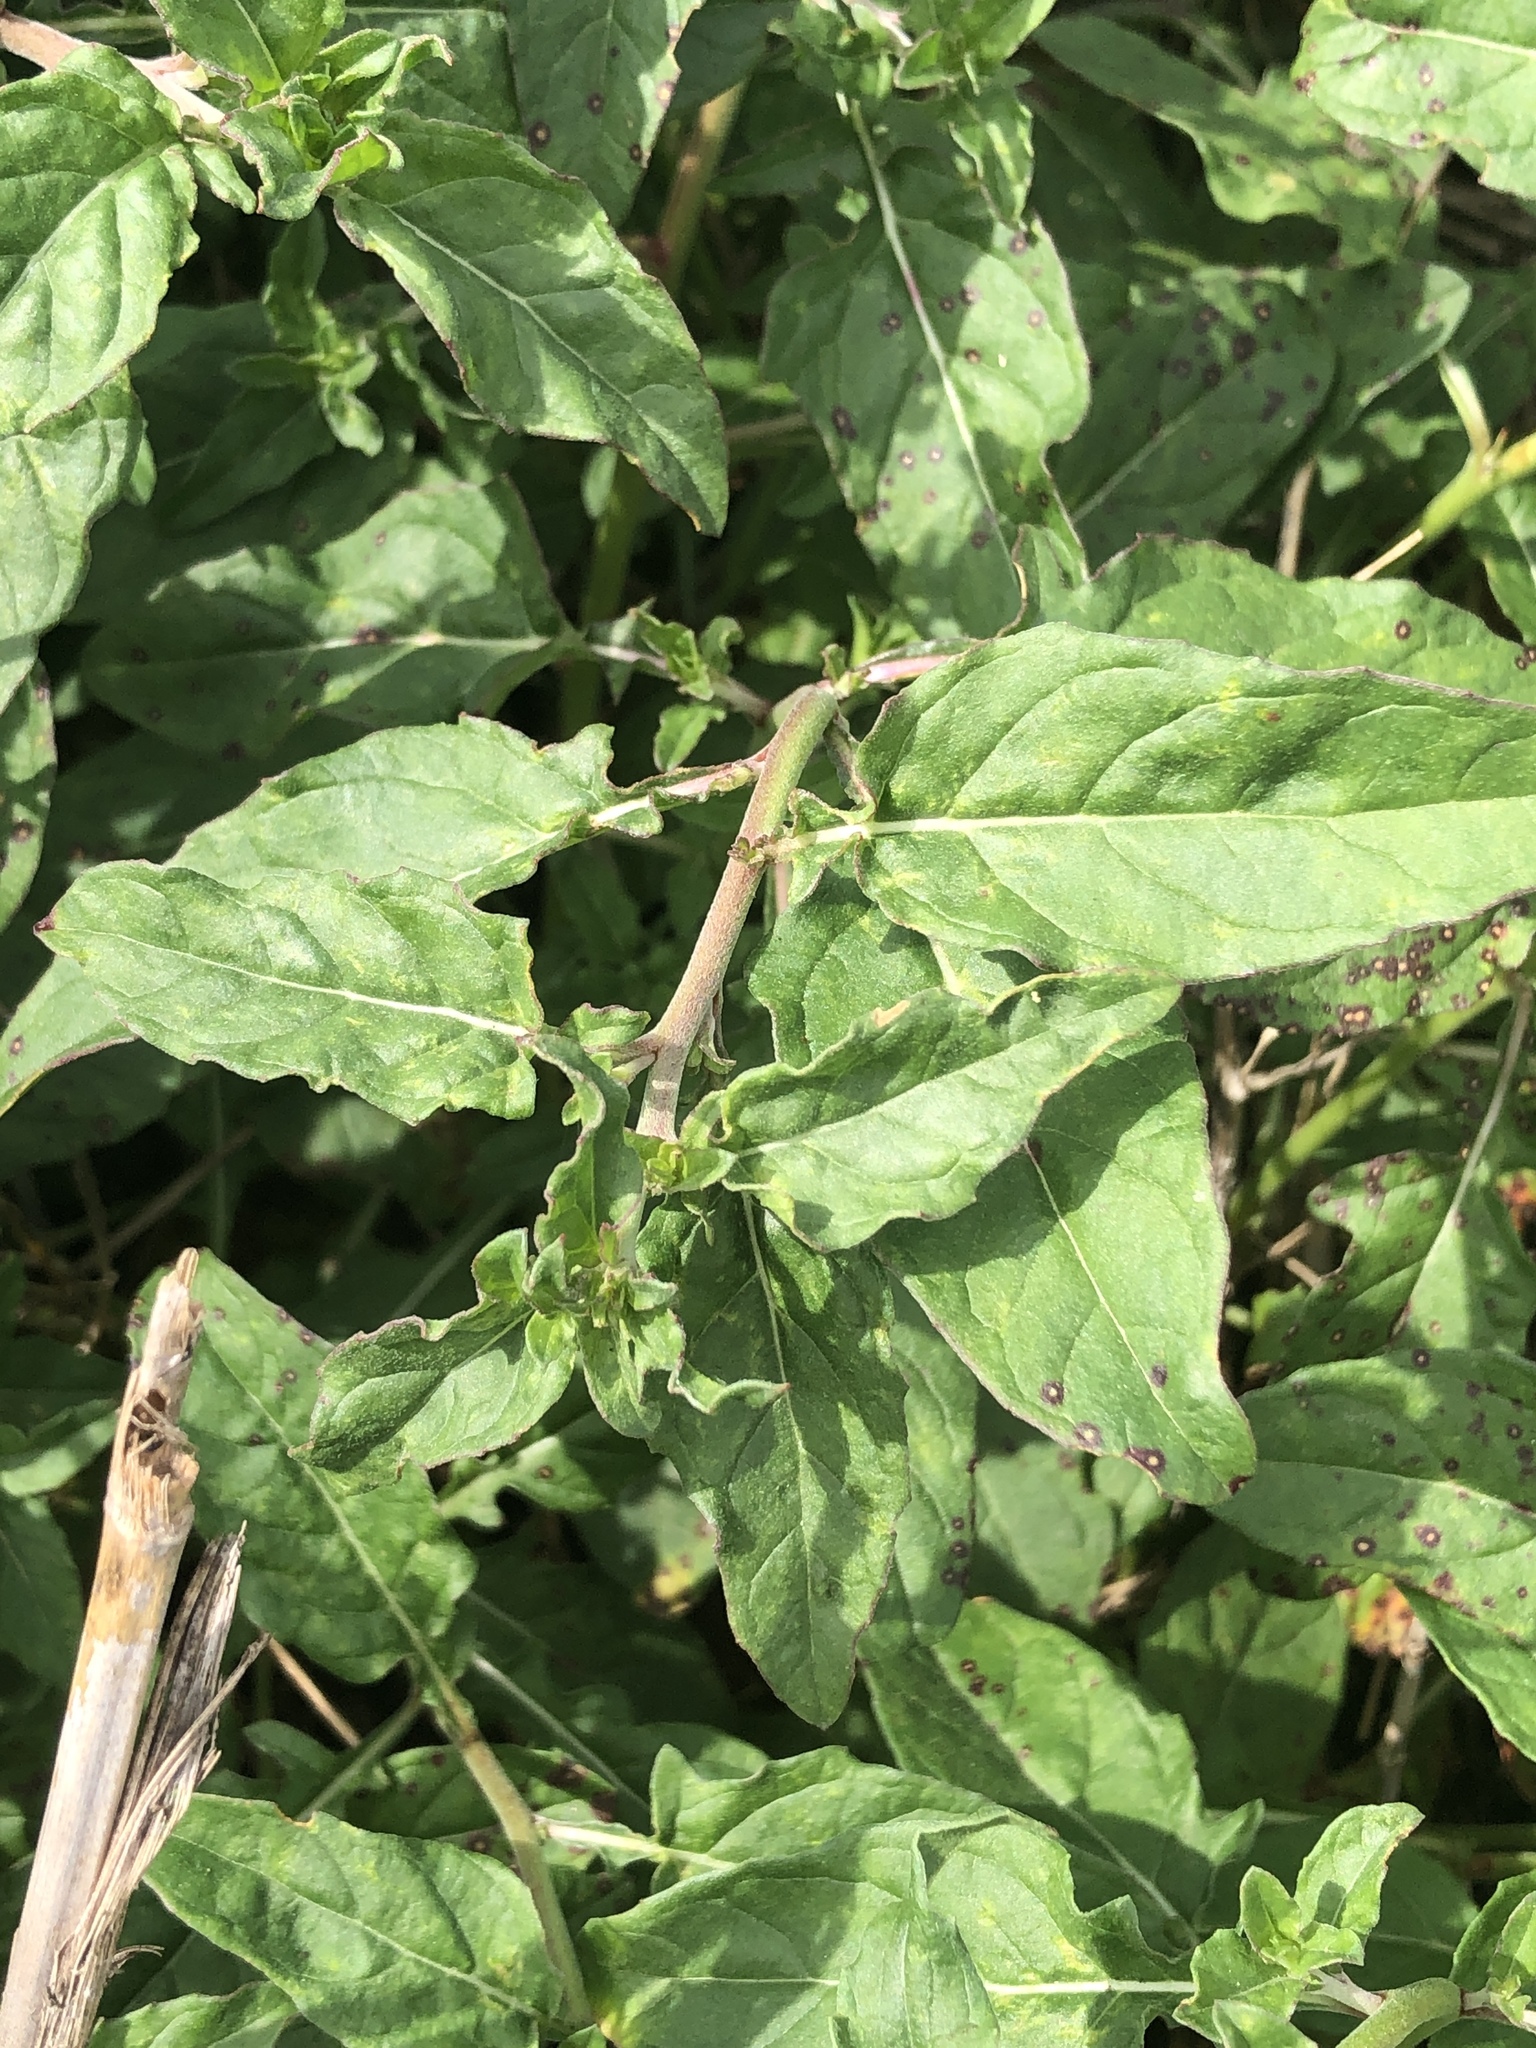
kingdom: Plantae
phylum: Tracheophyta
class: Magnoliopsida
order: Myrtales
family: Onagraceae
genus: Oenothera
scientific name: Oenothera speciosa
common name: White evening-primrose
